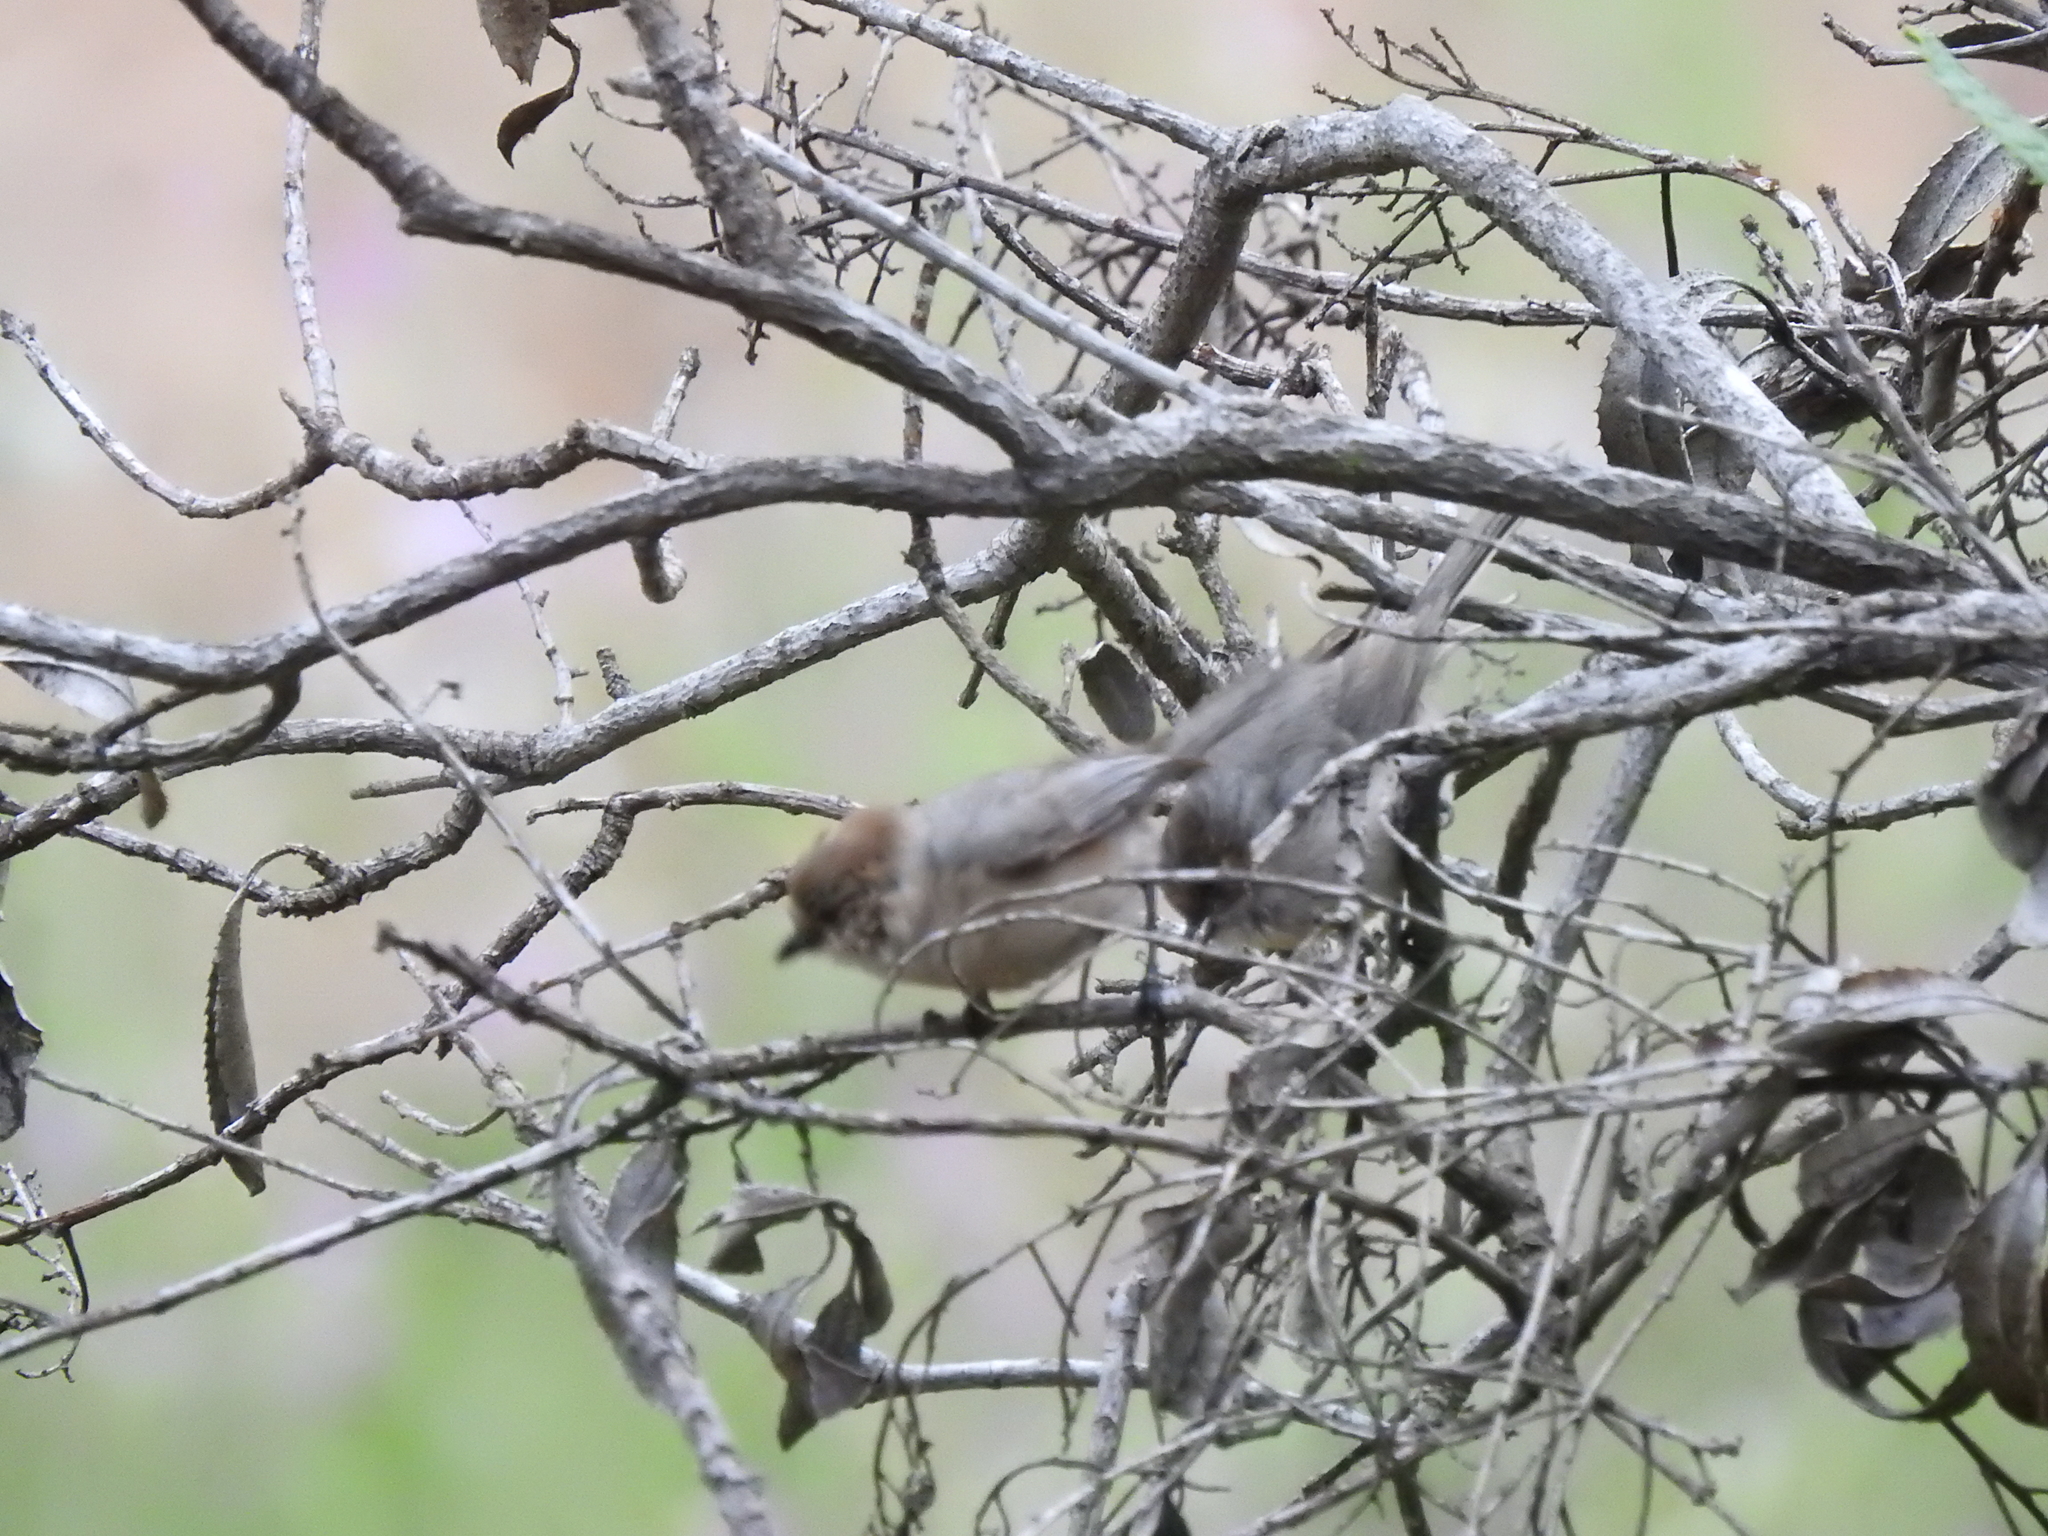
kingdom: Animalia
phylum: Chordata
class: Aves
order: Passeriformes
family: Aegithalidae
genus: Psaltriparus
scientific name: Psaltriparus minimus
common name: American bushtit
